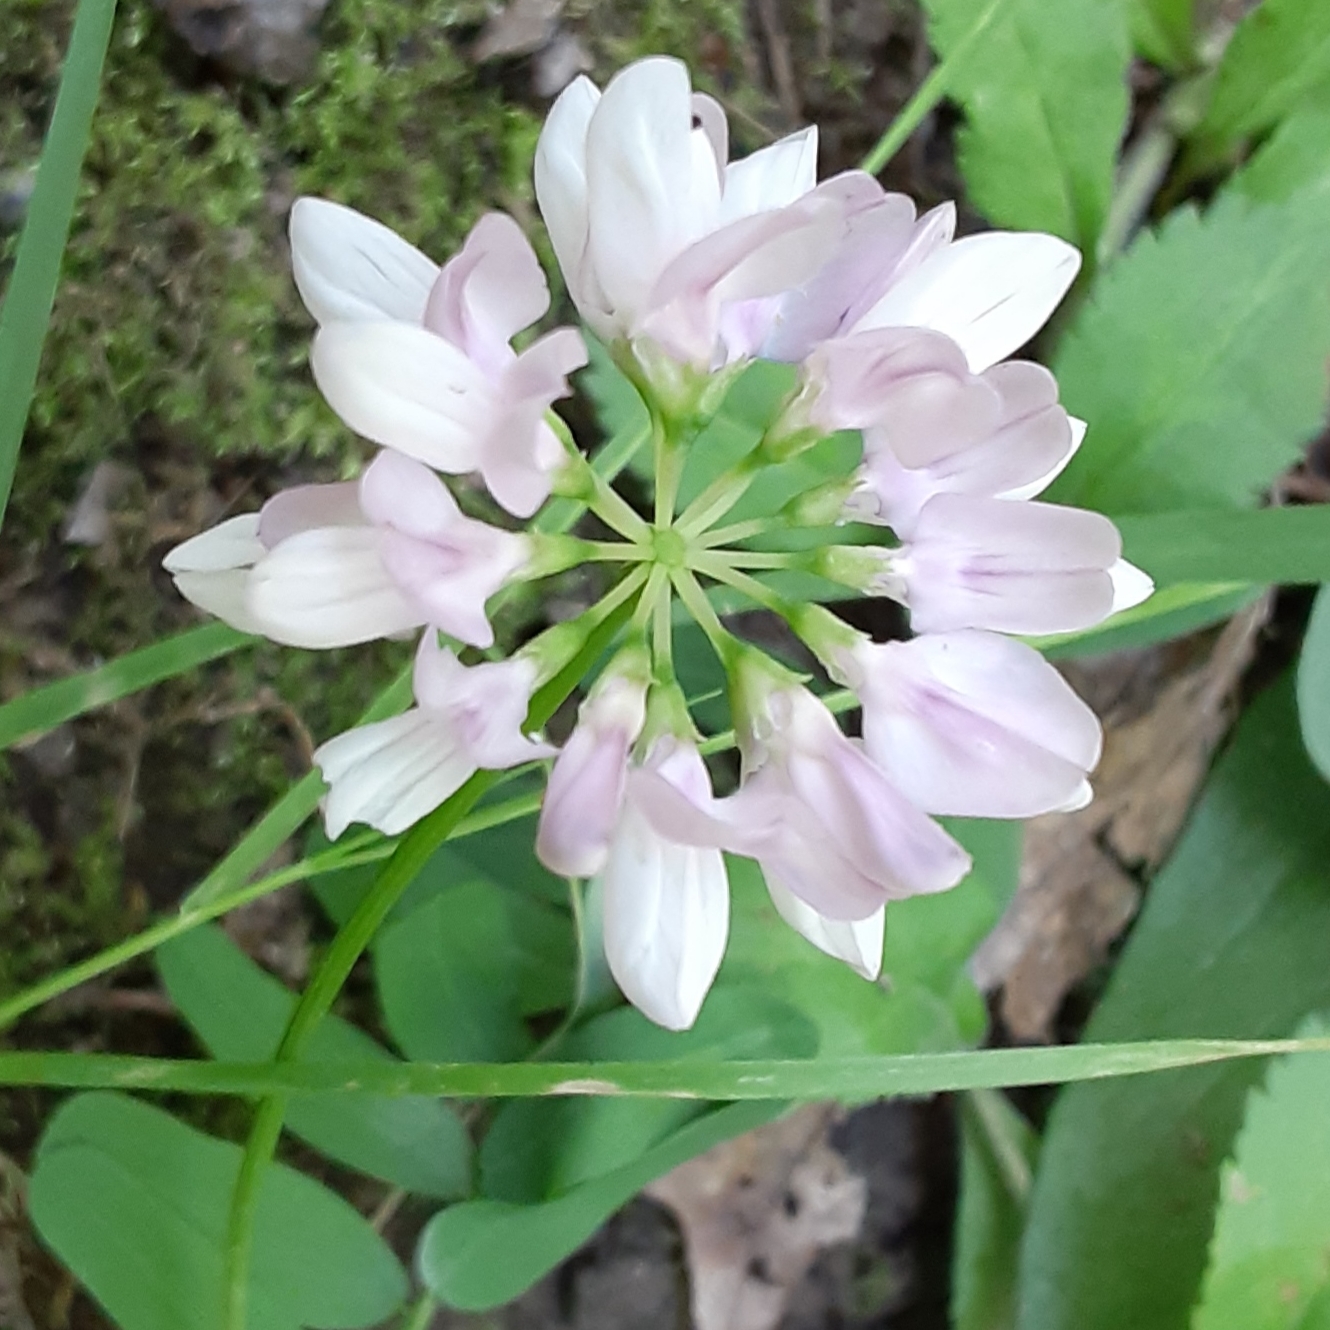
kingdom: Plantae
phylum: Tracheophyta
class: Magnoliopsida
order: Fabales
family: Fabaceae
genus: Coronilla
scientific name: Coronilla varia
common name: Crownvetch
